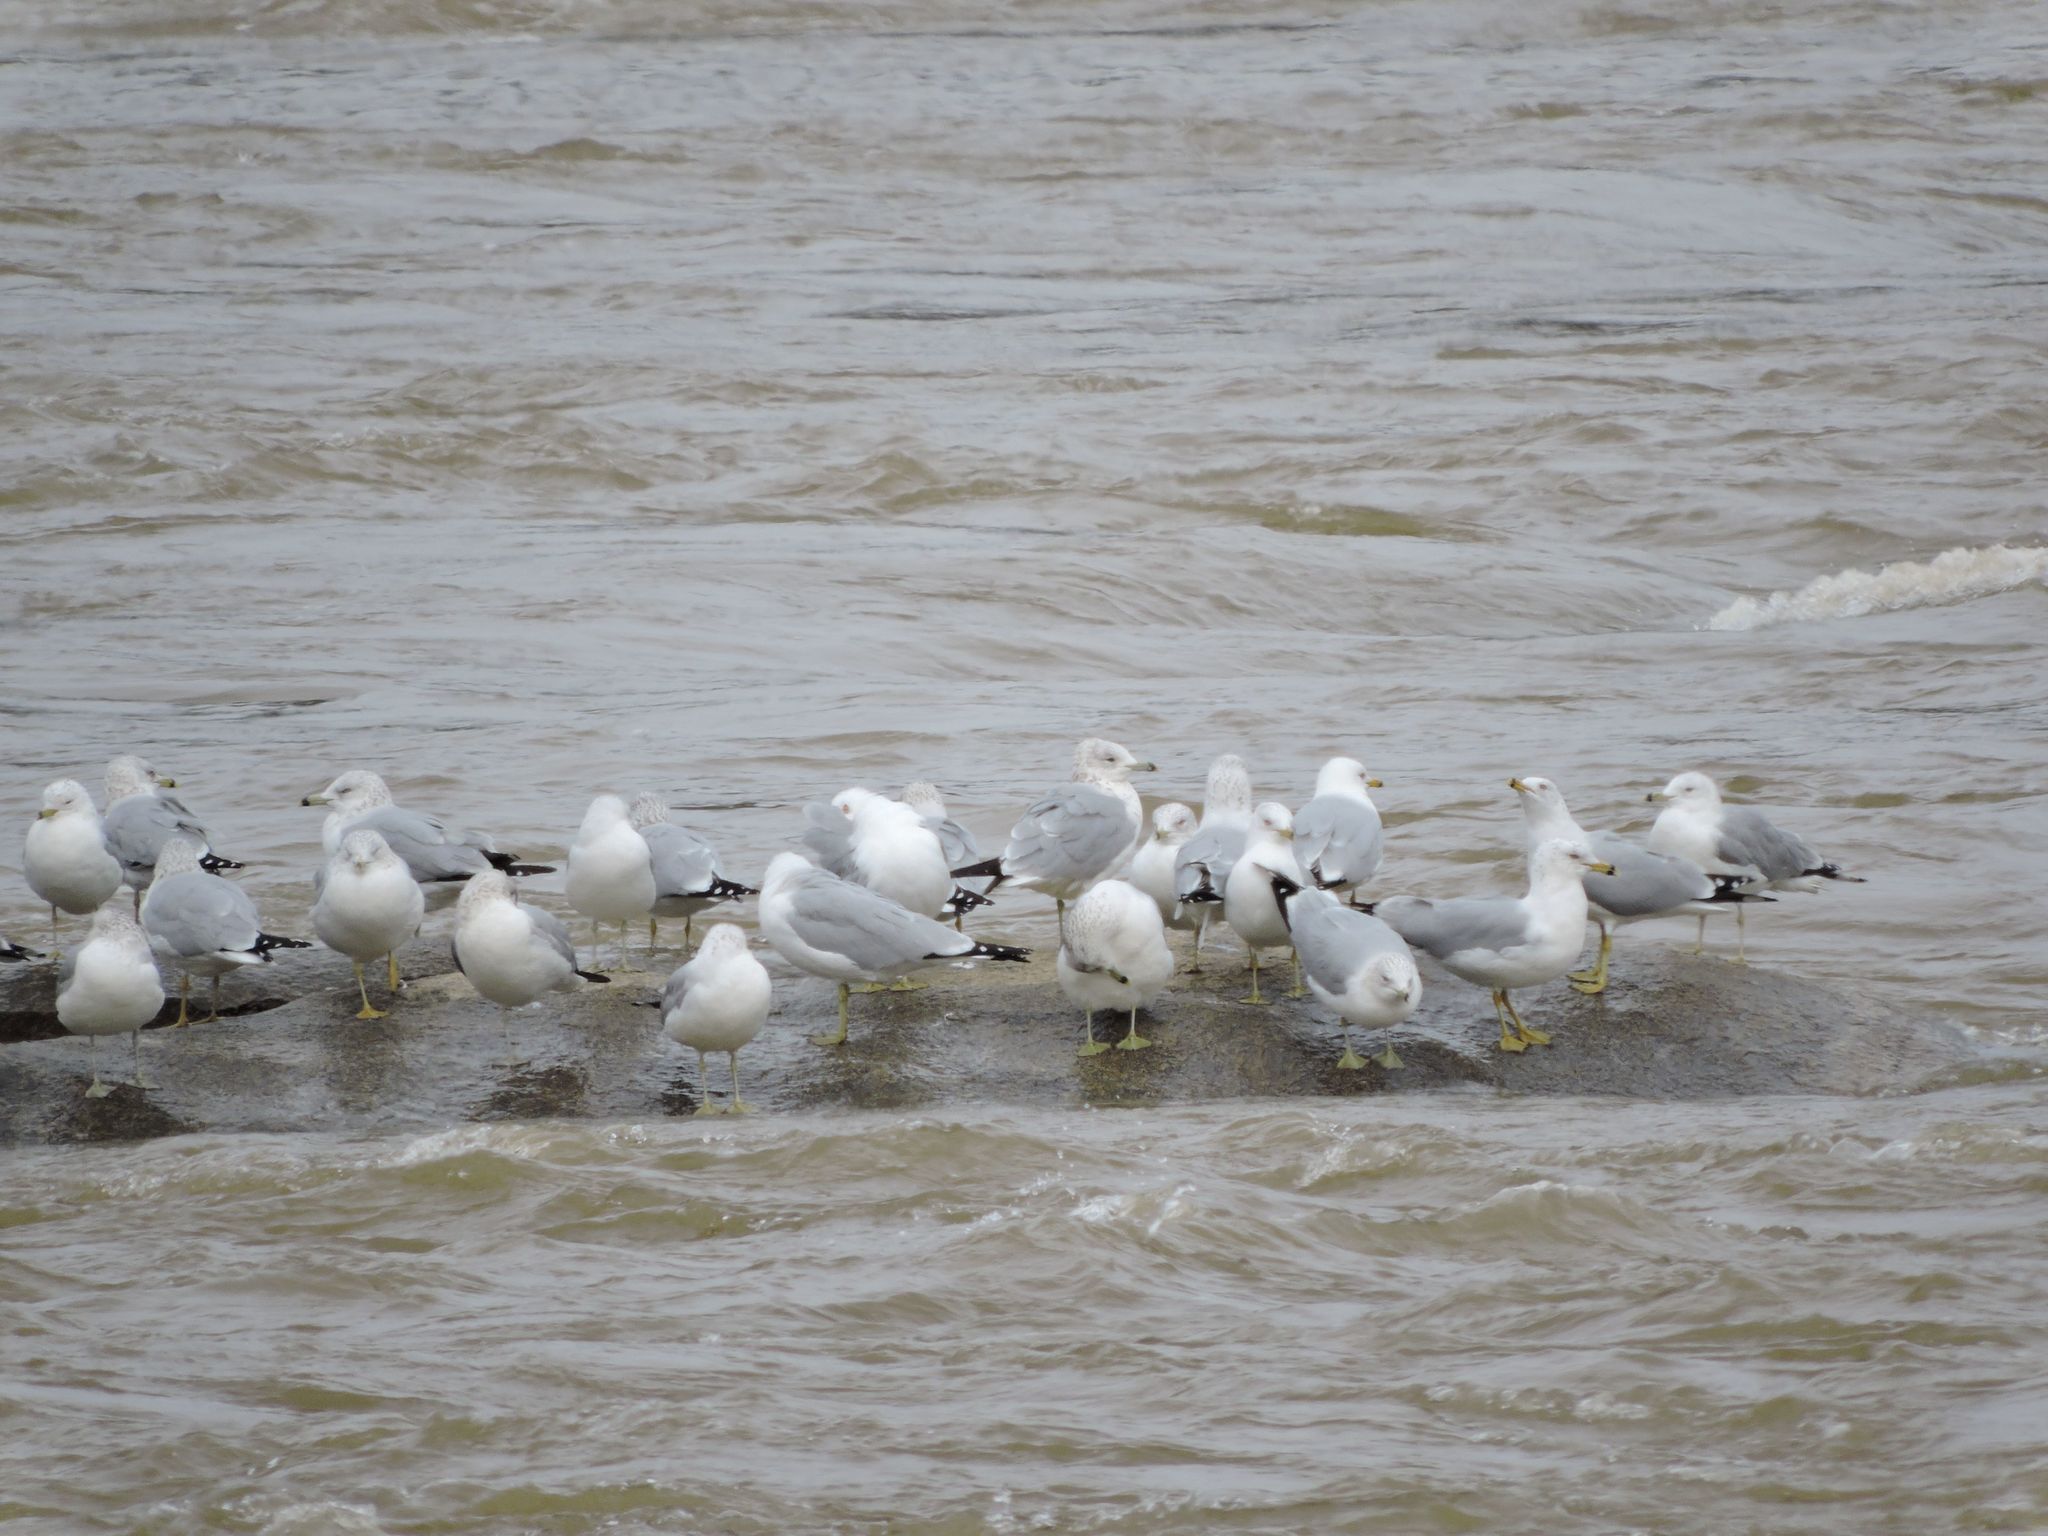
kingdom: Animalia
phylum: Chordata
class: Aves
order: Charadriiformes
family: Laridae
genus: Larus
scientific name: Larus delawarensis
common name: Ring-billed gull
